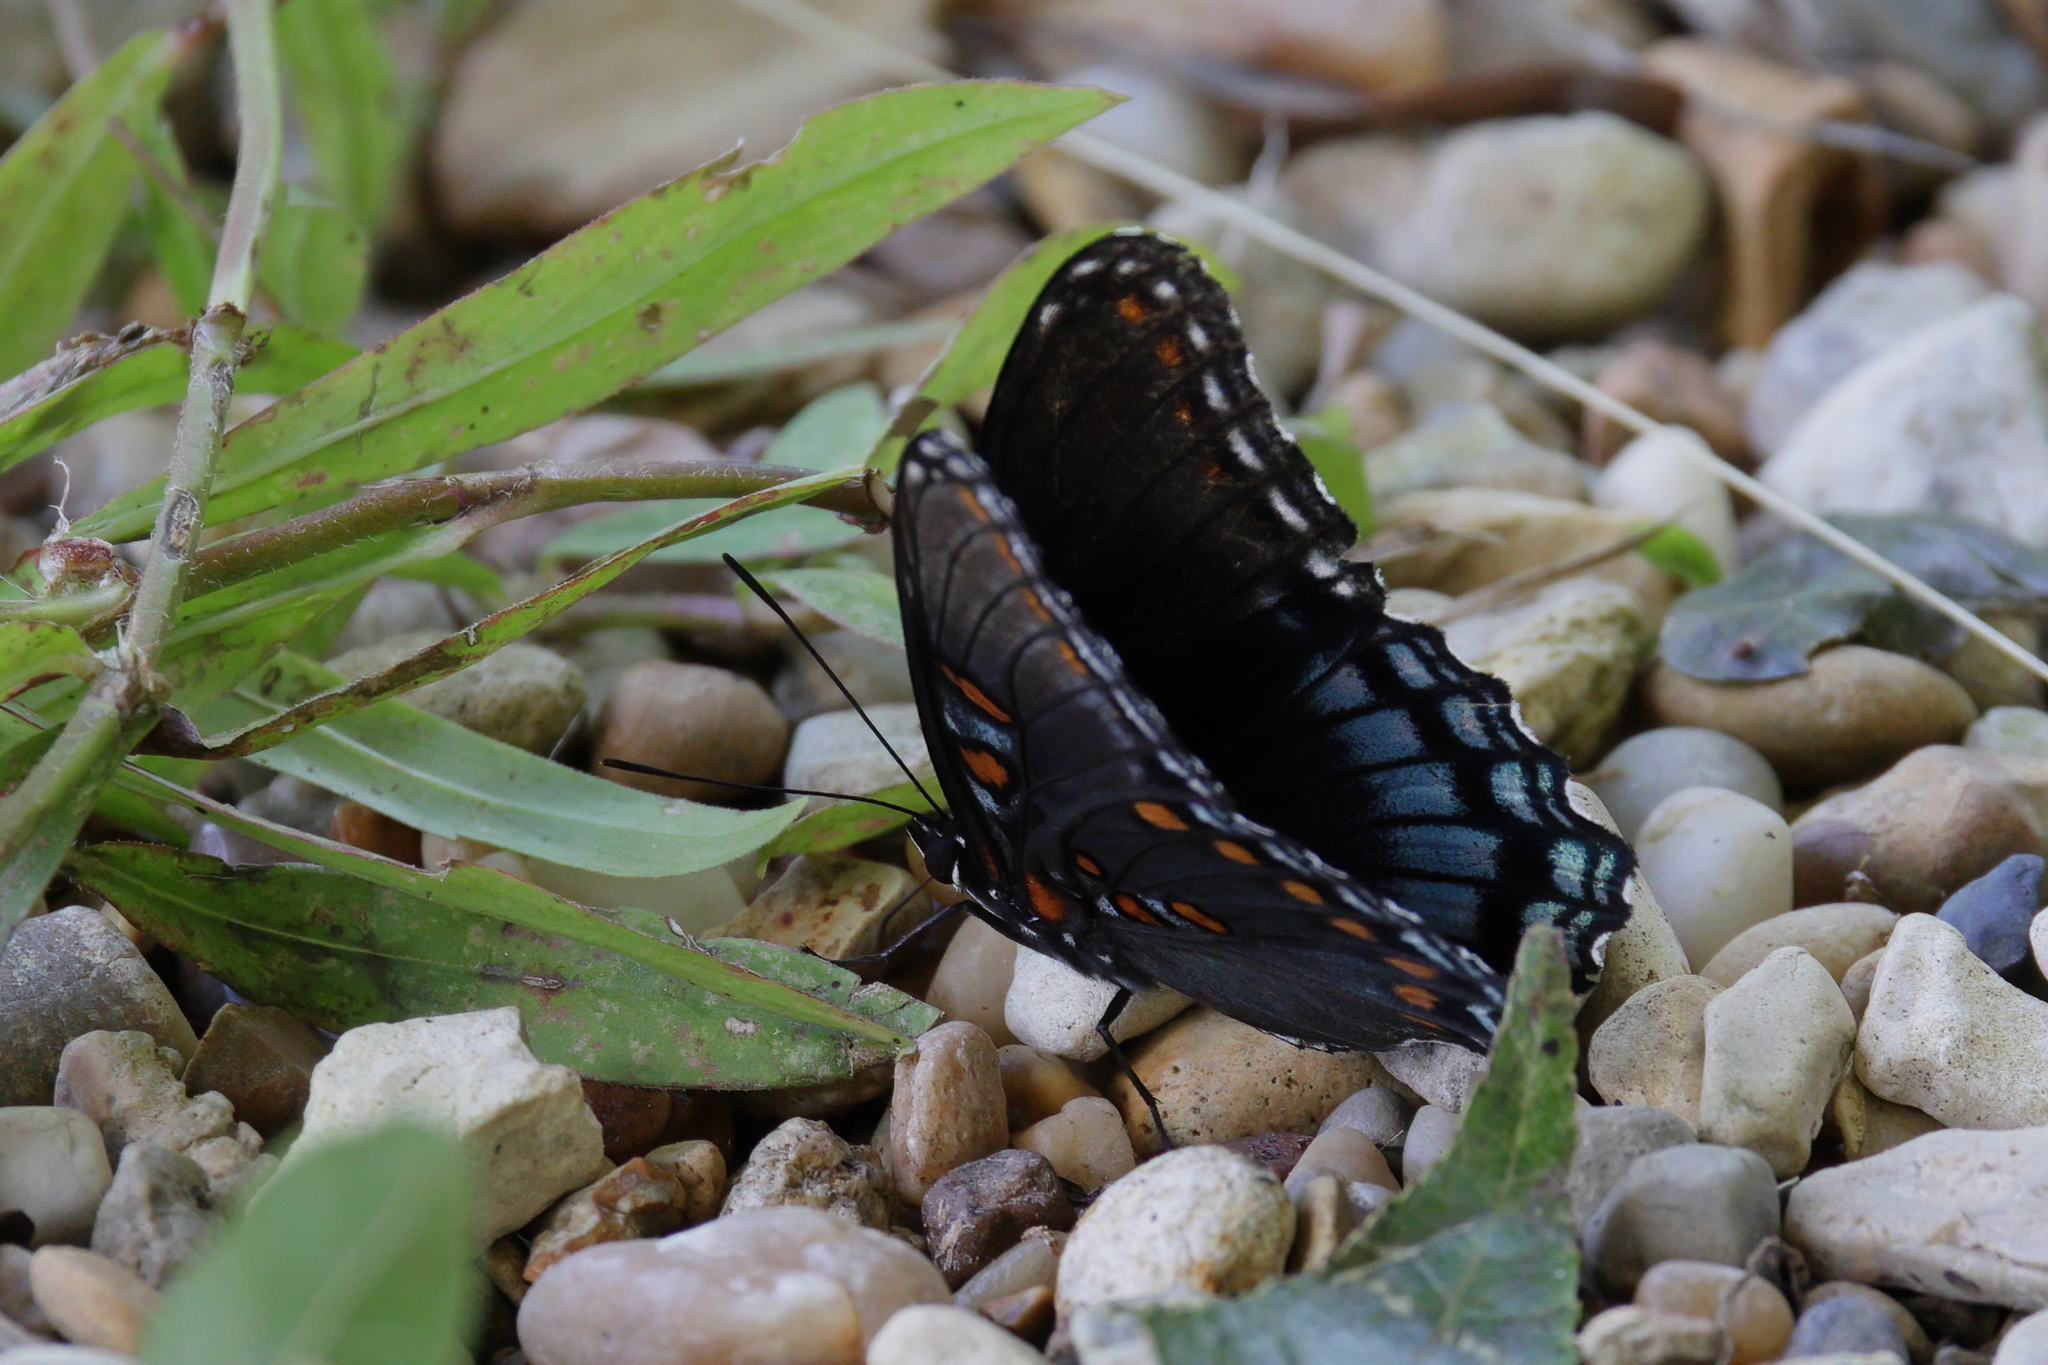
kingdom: Animalia
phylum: Arthropoda
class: Insecta
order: Lepidoptera
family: Nymphalidae
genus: Limenitis
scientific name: Limenitis astyanax
